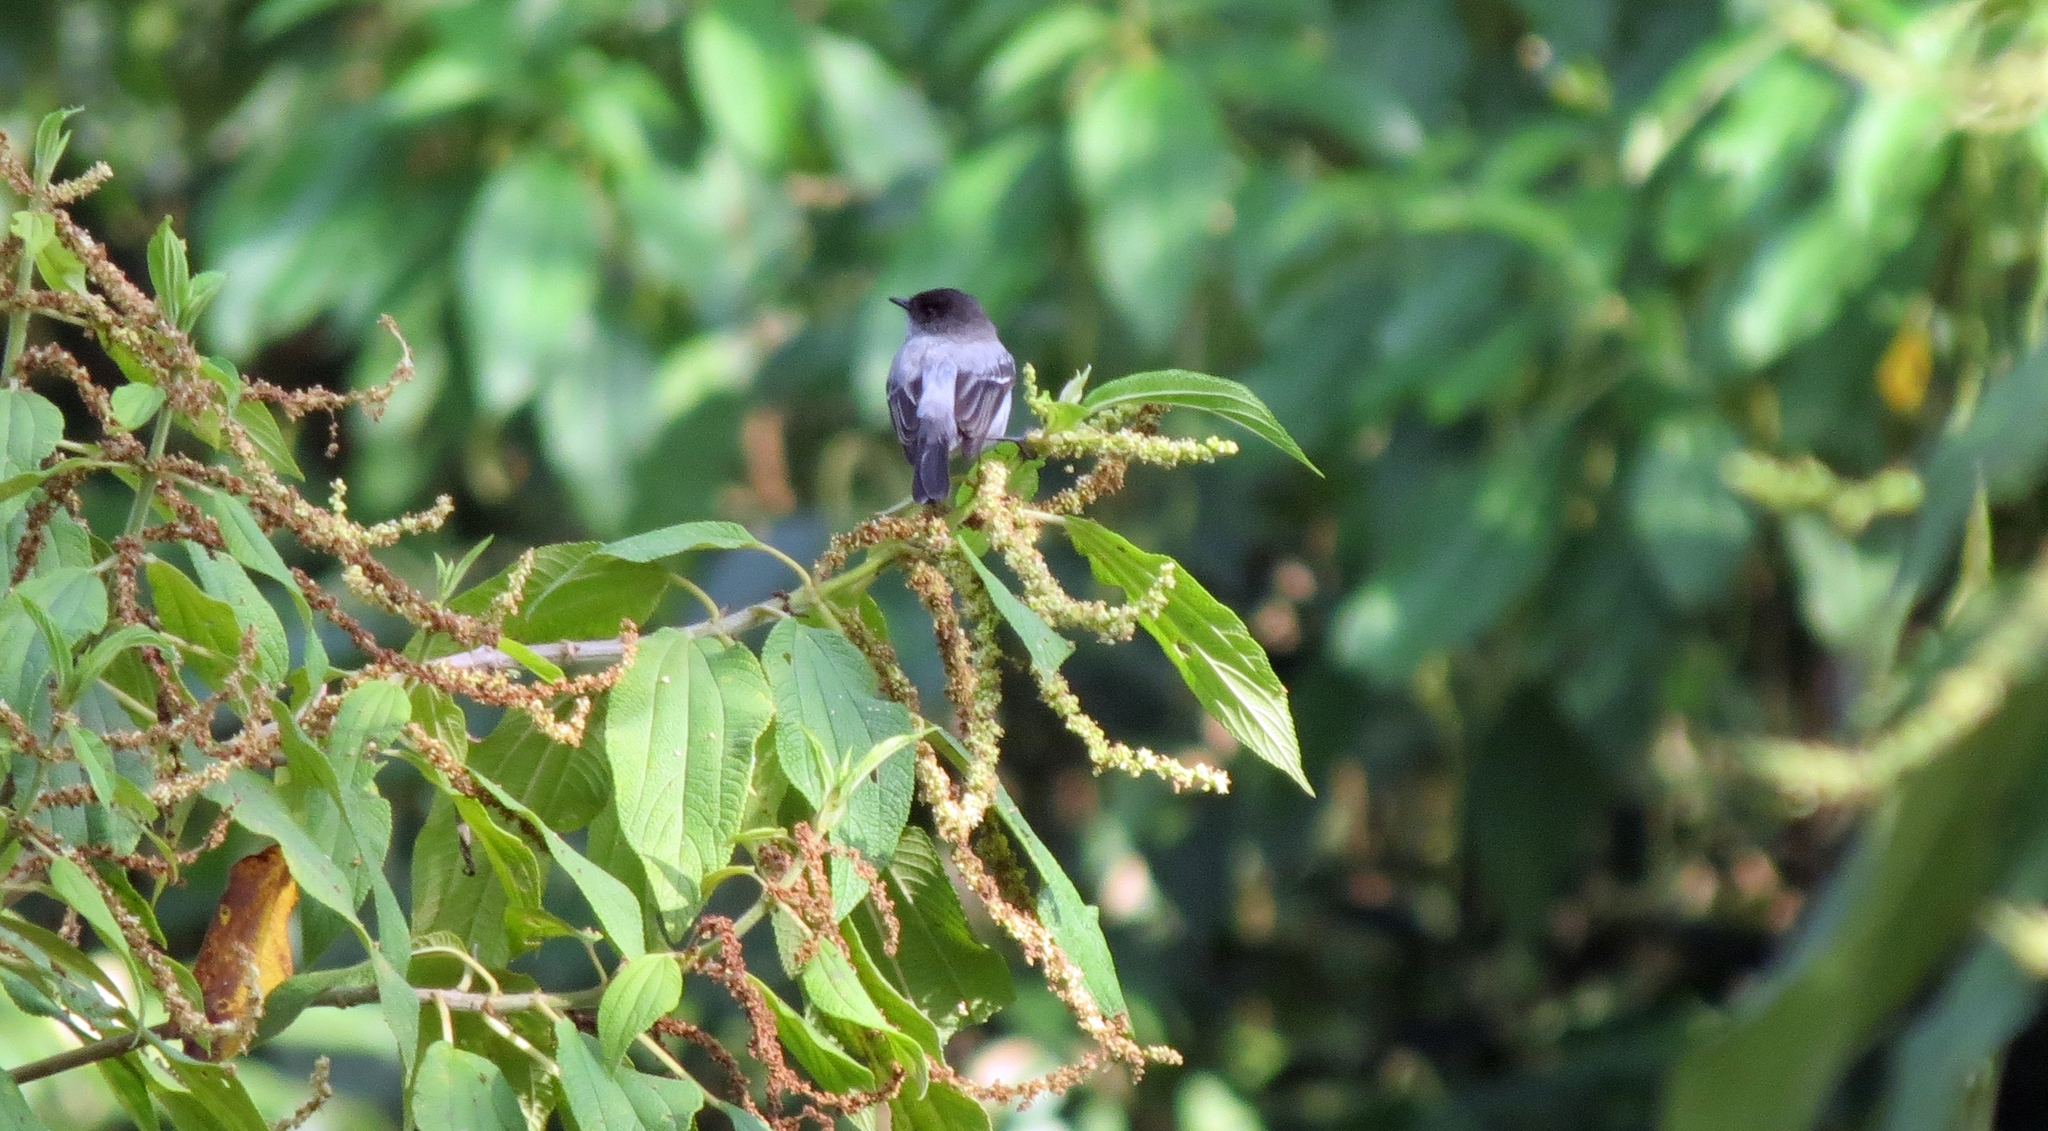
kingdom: Animalia
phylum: Chordata
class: Aves
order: Passeriformes
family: Tyrannidae
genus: Serpophaga
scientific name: Serpophaga cinerea
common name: Torrent tyrannulet
